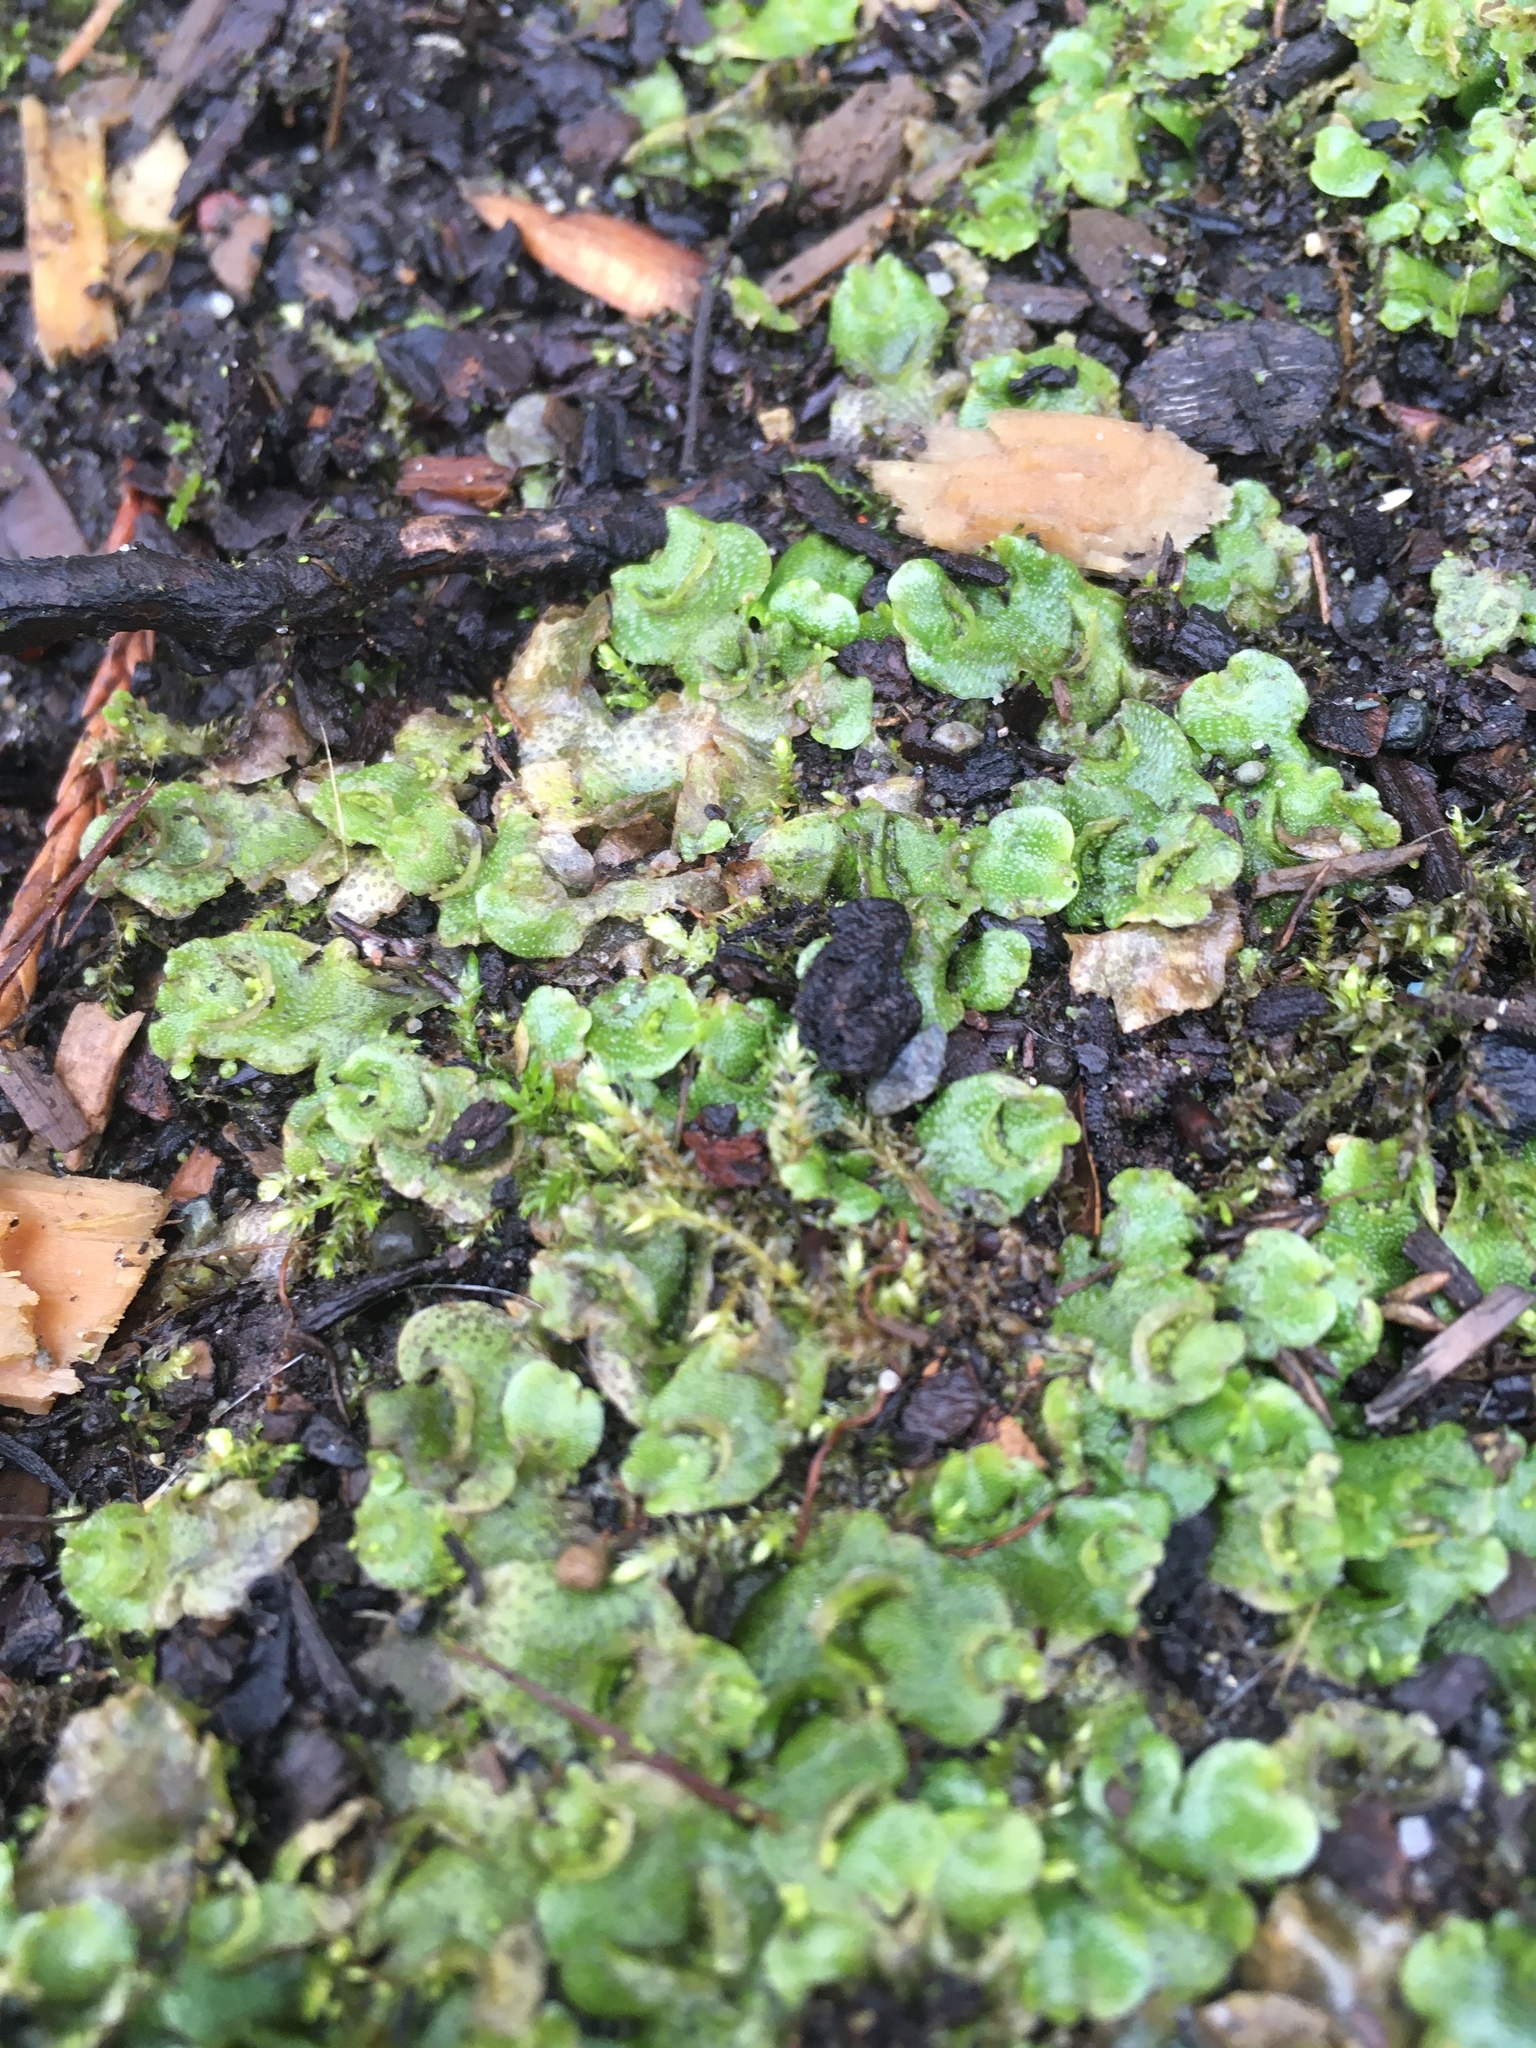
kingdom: Plantae
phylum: Marchantiophyta
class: Marchantiopsida
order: Lunulariales
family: Lunulariaceae
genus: Lunularia
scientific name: Lunularia cruciata
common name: Crescent-cup liverwort
